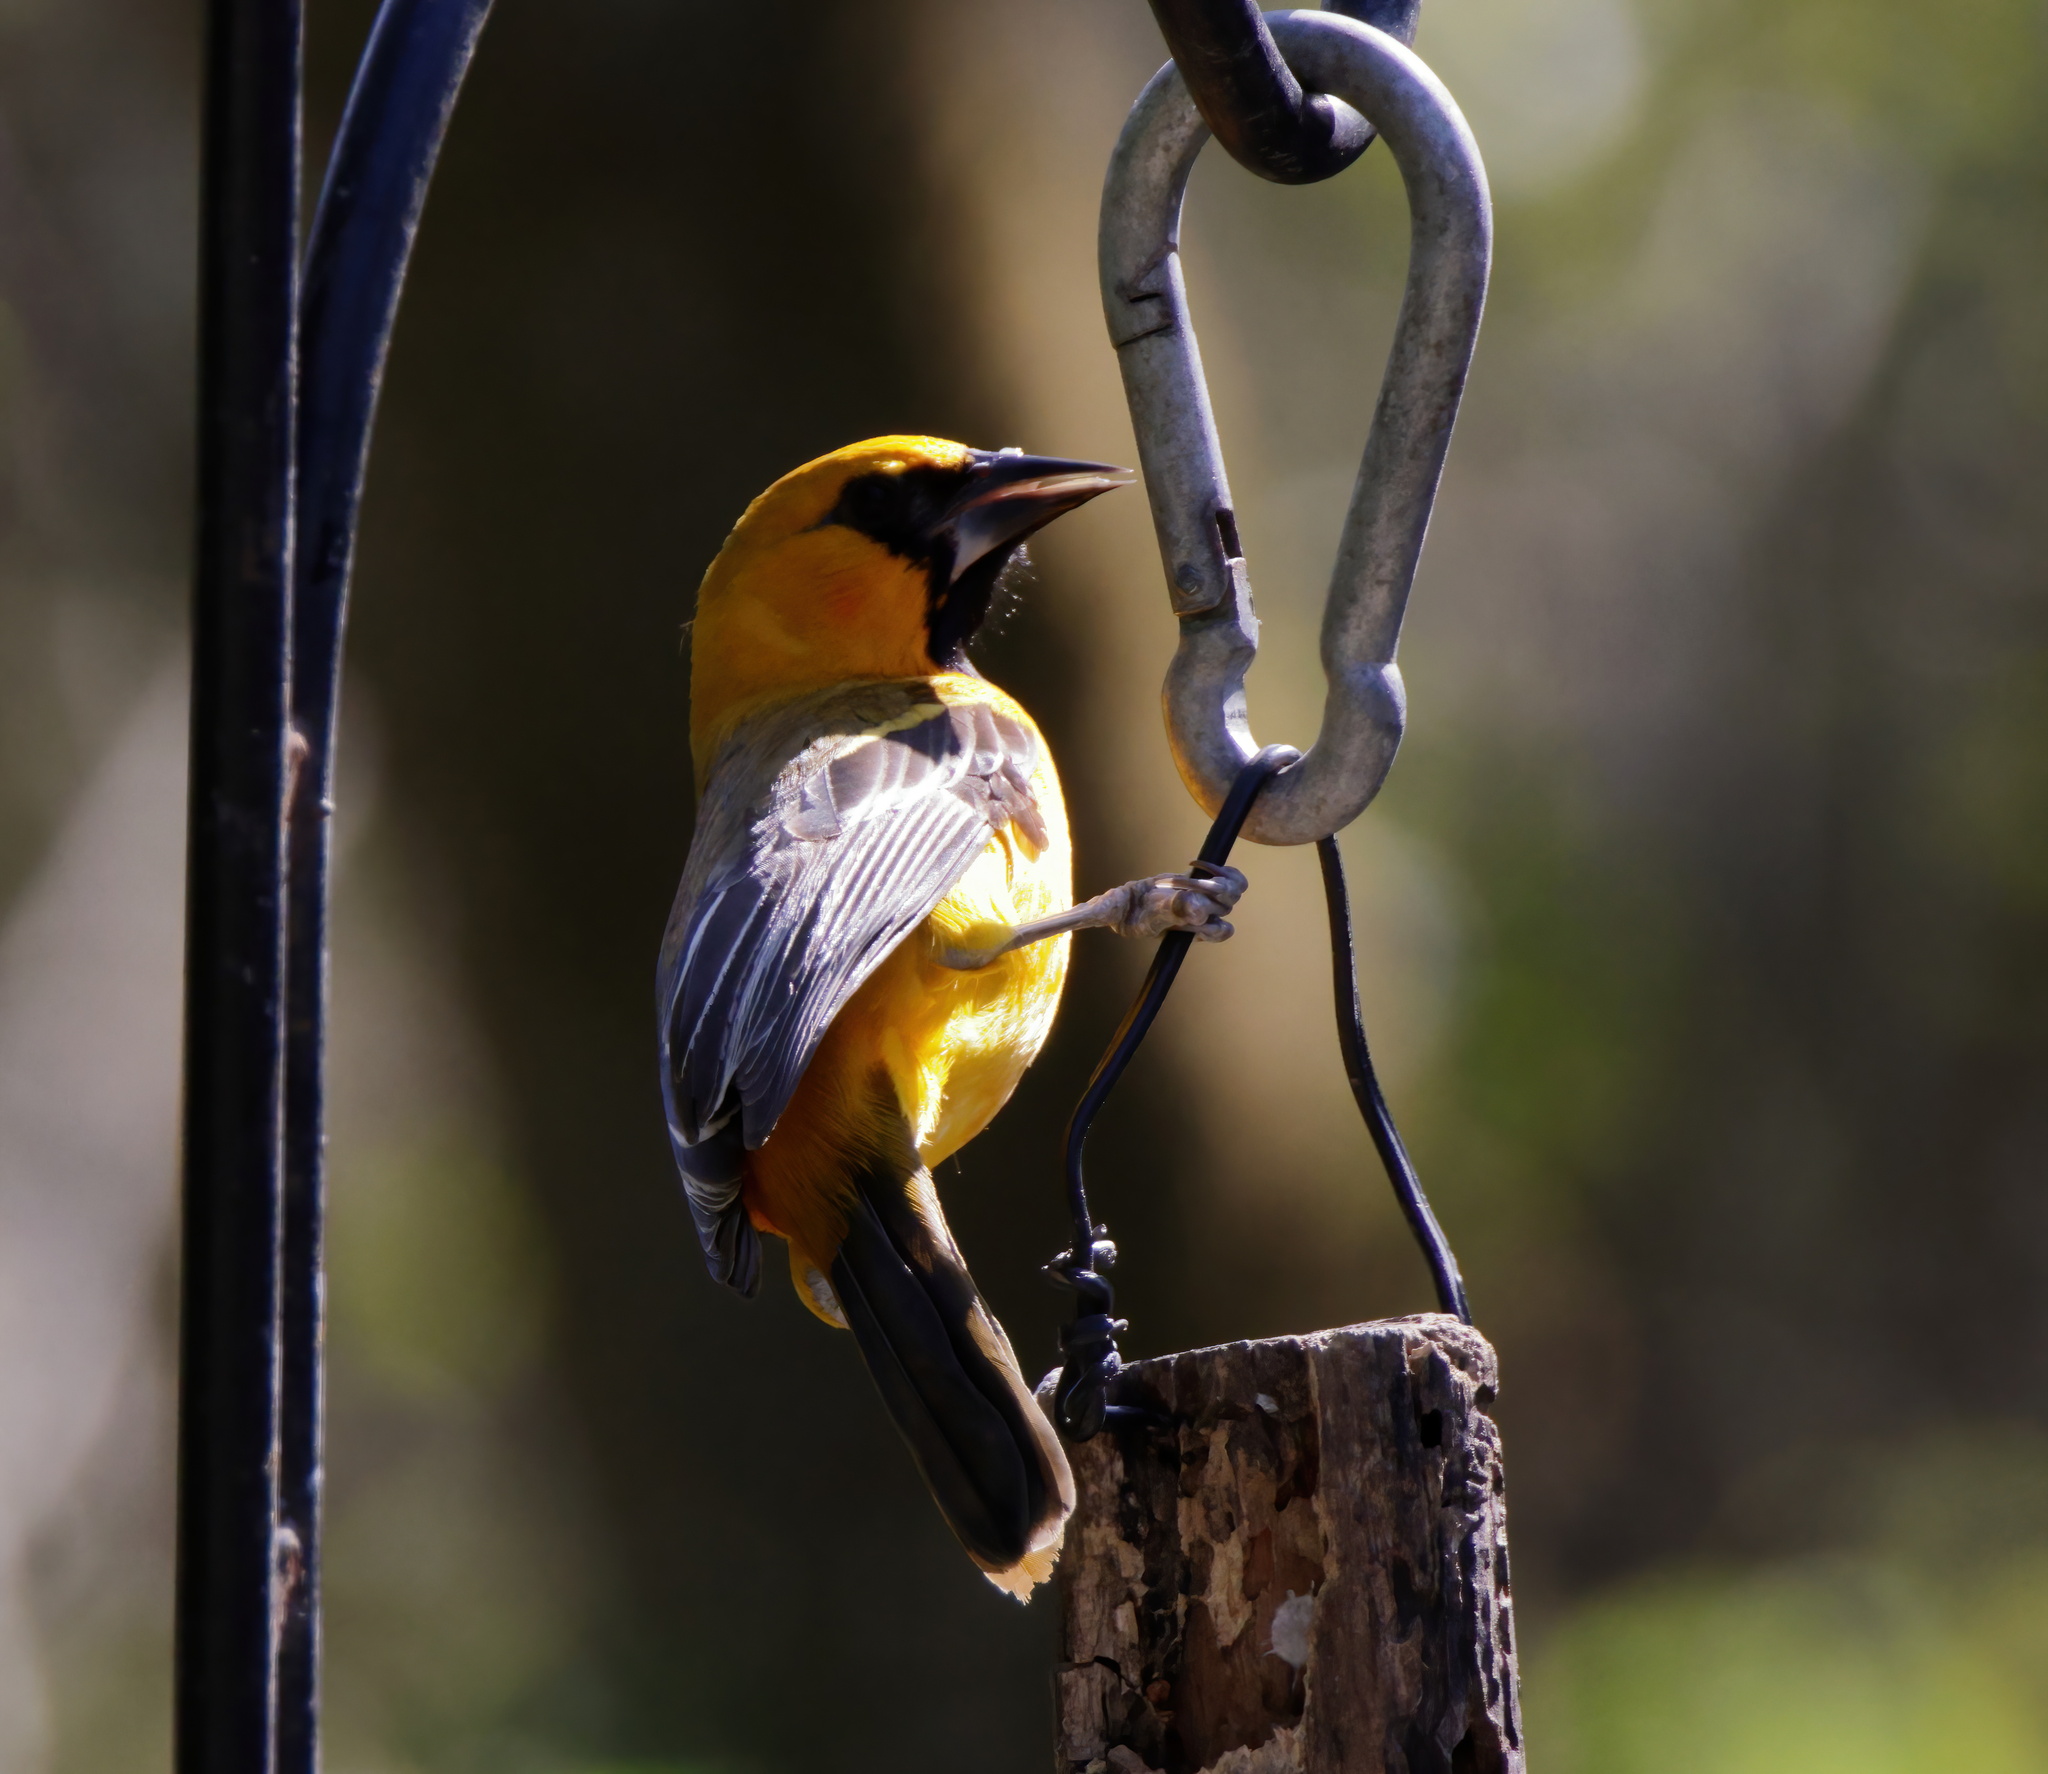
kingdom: Animalia
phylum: Chordata
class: Aves
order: Passeriformes
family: Icteridae
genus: Icterus
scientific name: Icterus gularis
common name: Altamira oriole
